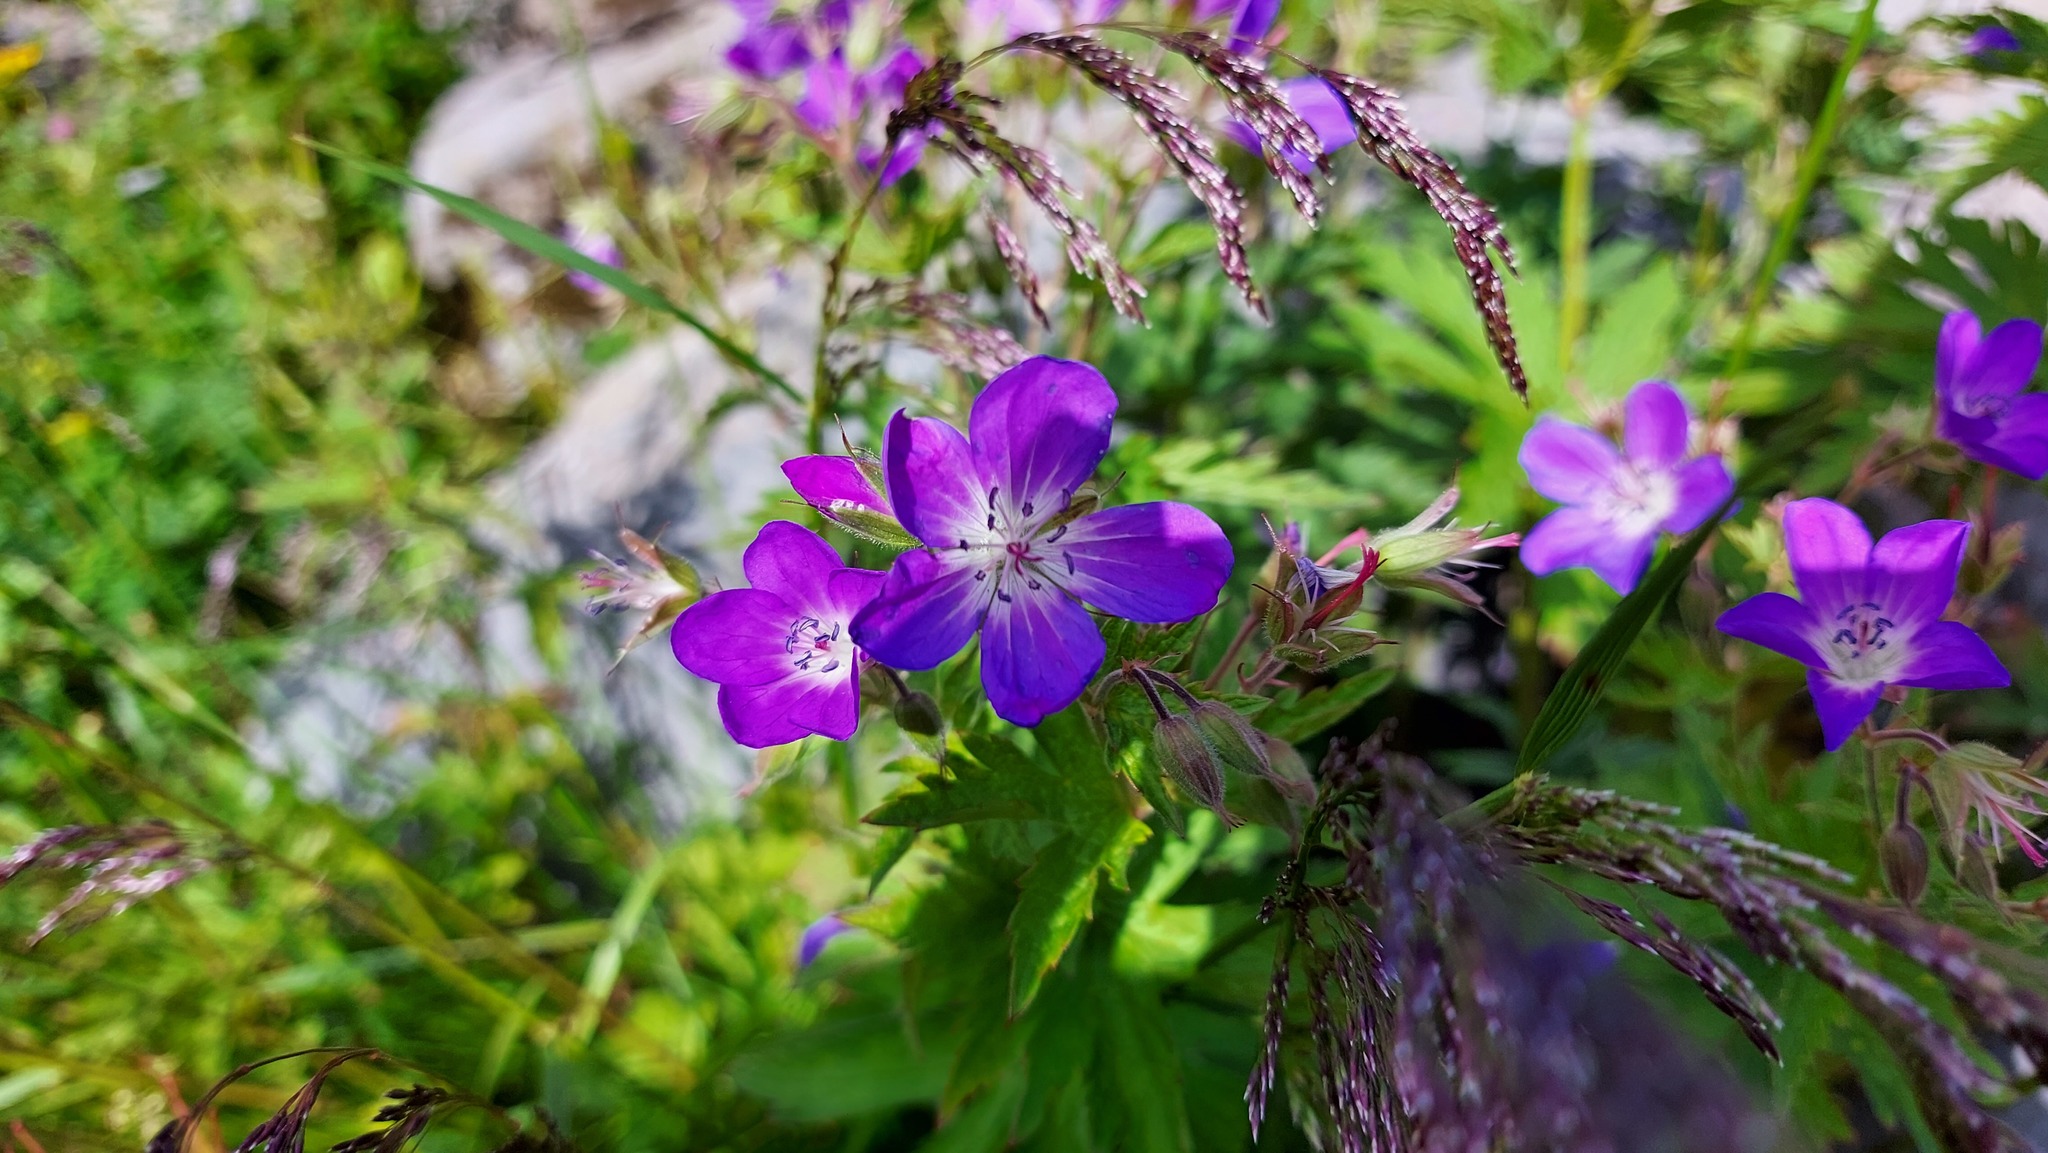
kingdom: Plantae
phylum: Tracheophyta
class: Magnoliopsida
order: Geraniales
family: Geraniaceae
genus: Geranium
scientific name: Geranium sylvaticum
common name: Wood crane's-bill
